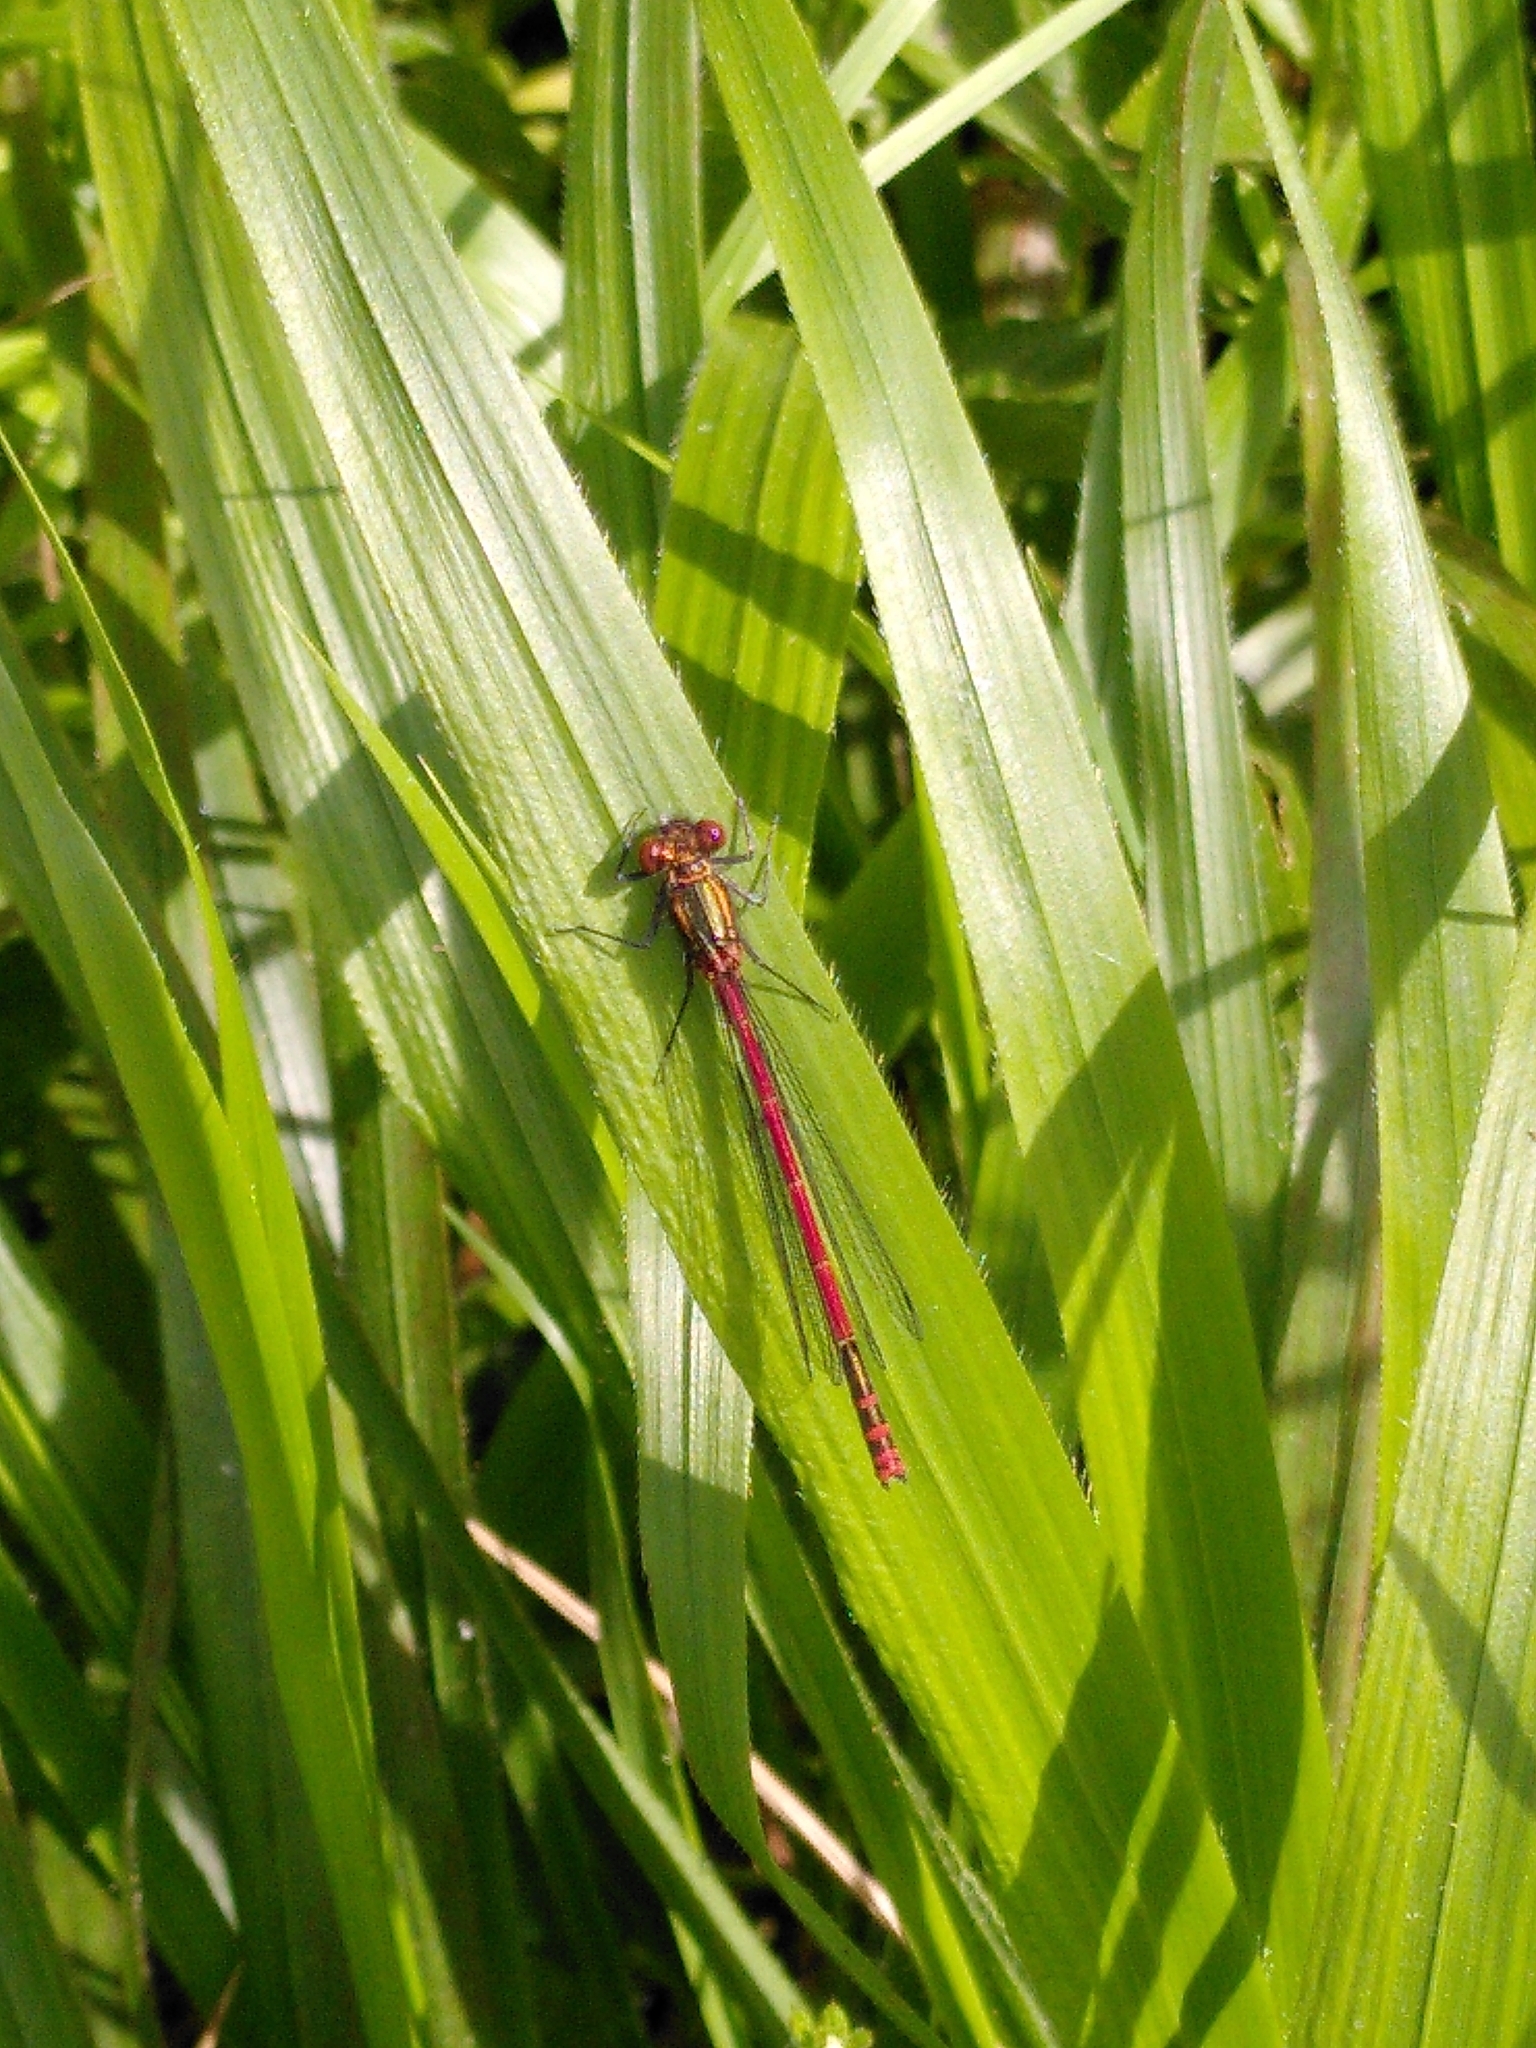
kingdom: Animalia
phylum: Arthropoda
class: Insecta
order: Odonata
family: Coenagrionidae
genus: Pyrrhosoma
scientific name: Pyrrhosoma nymphula
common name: Large red damsel
